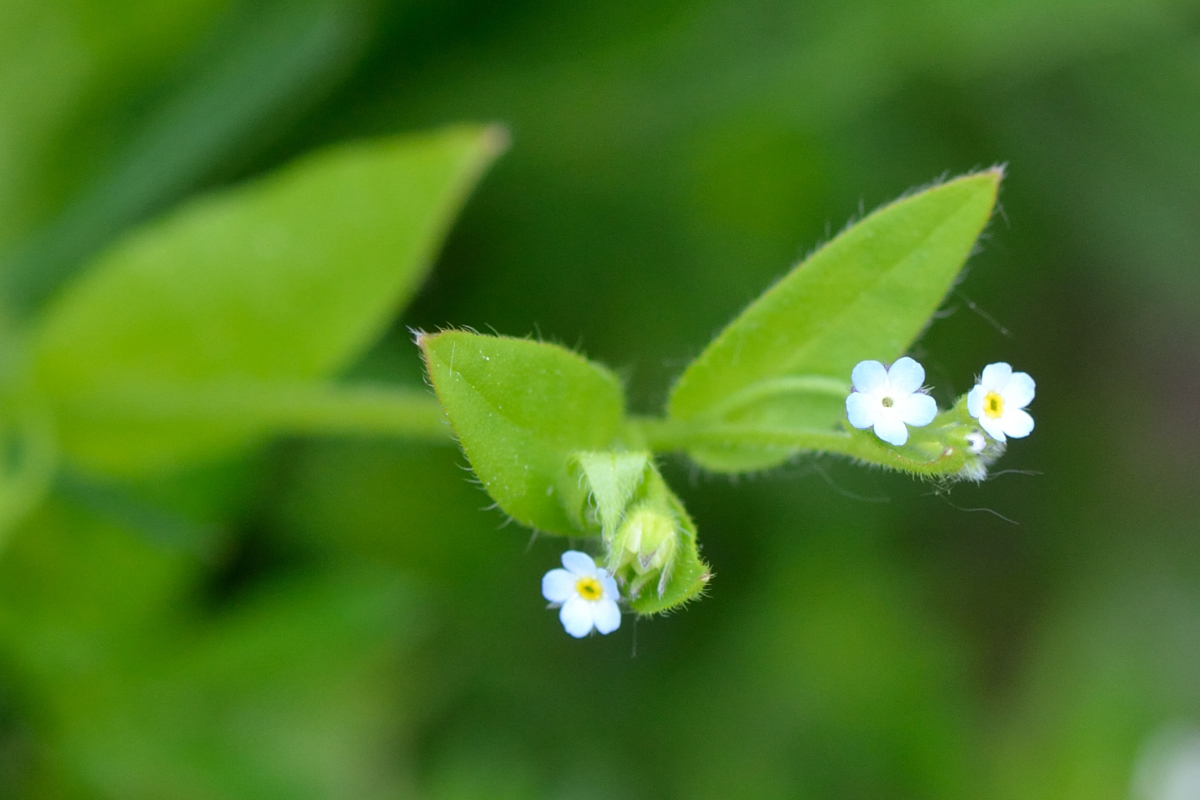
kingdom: Plantae
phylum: Tracheophyta
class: Magnoliopsida
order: Boraginales
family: Boraginaceae
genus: Myosotis
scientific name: Myosotis sparsiflora
